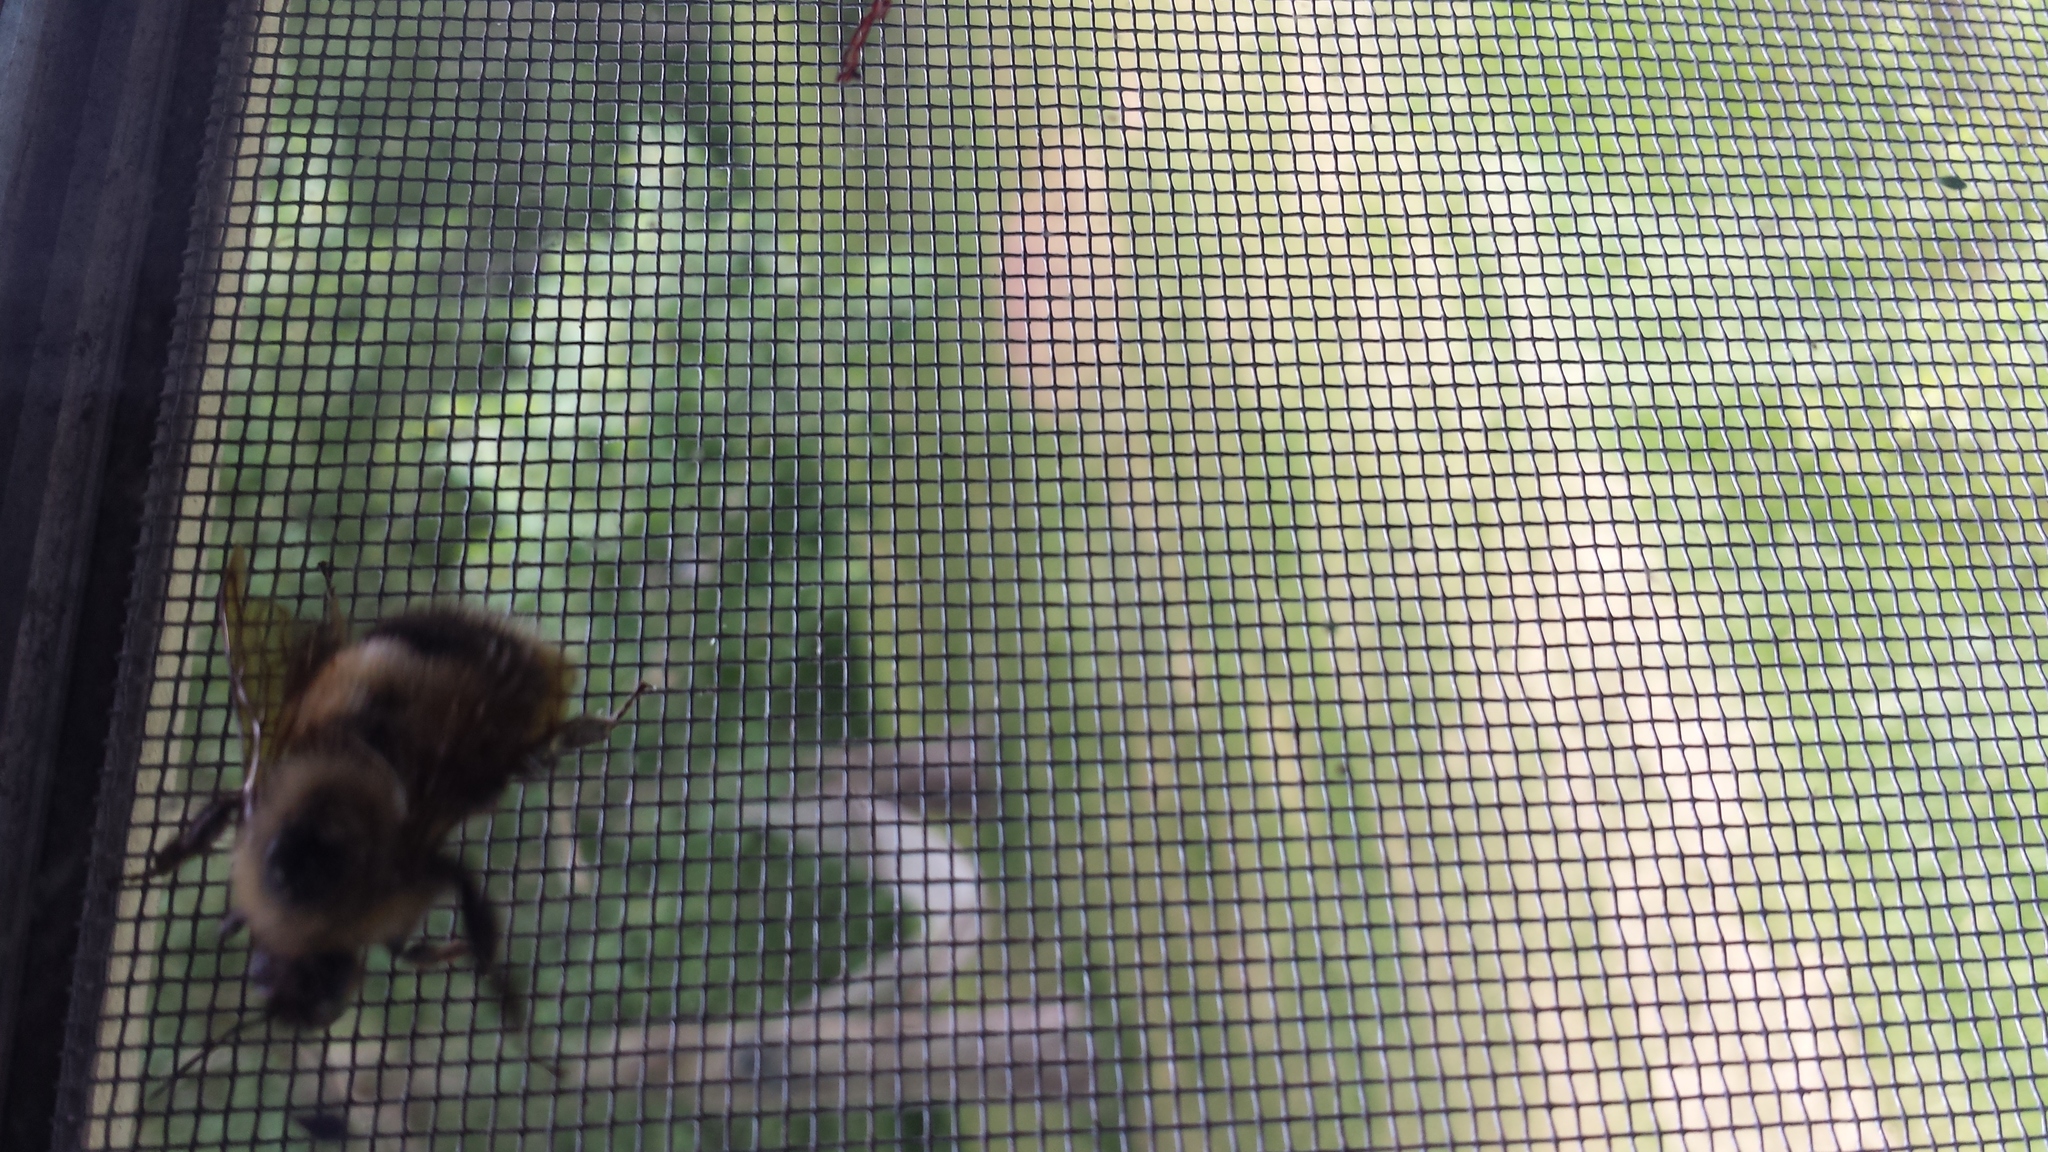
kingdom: Animalia
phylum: Arthropoda
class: Insecta
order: Hymenoptera
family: Apidae
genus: Pyrobombus
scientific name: Pyrobombus
